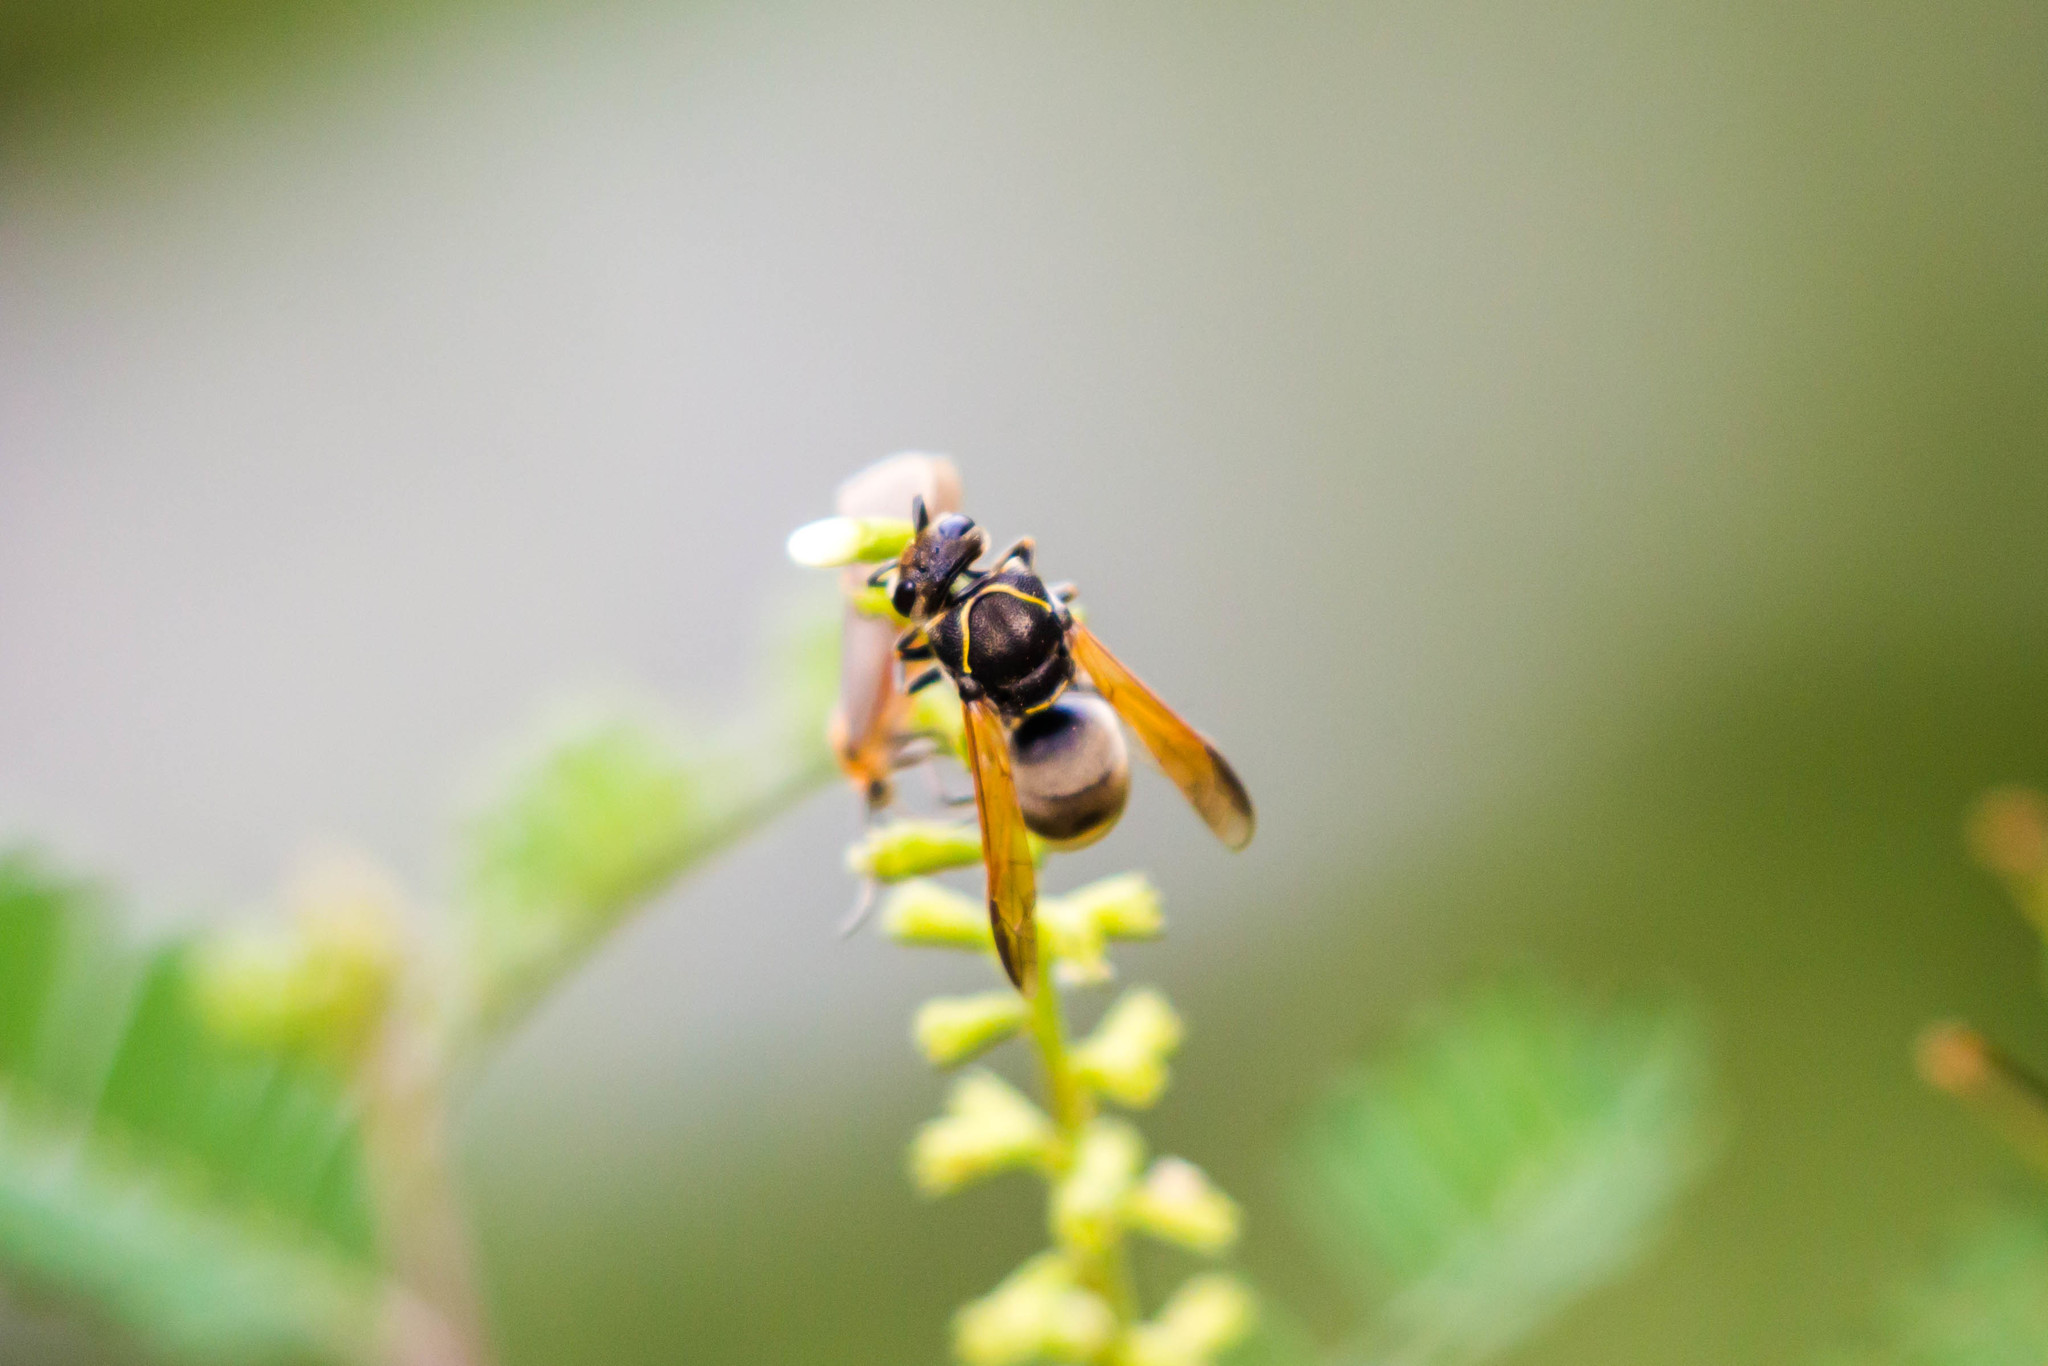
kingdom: Animalia
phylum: Arthropoda
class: Insecta
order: Hymenoptera
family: Eumenidae
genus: Pachodynerus
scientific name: Pachodynerus
